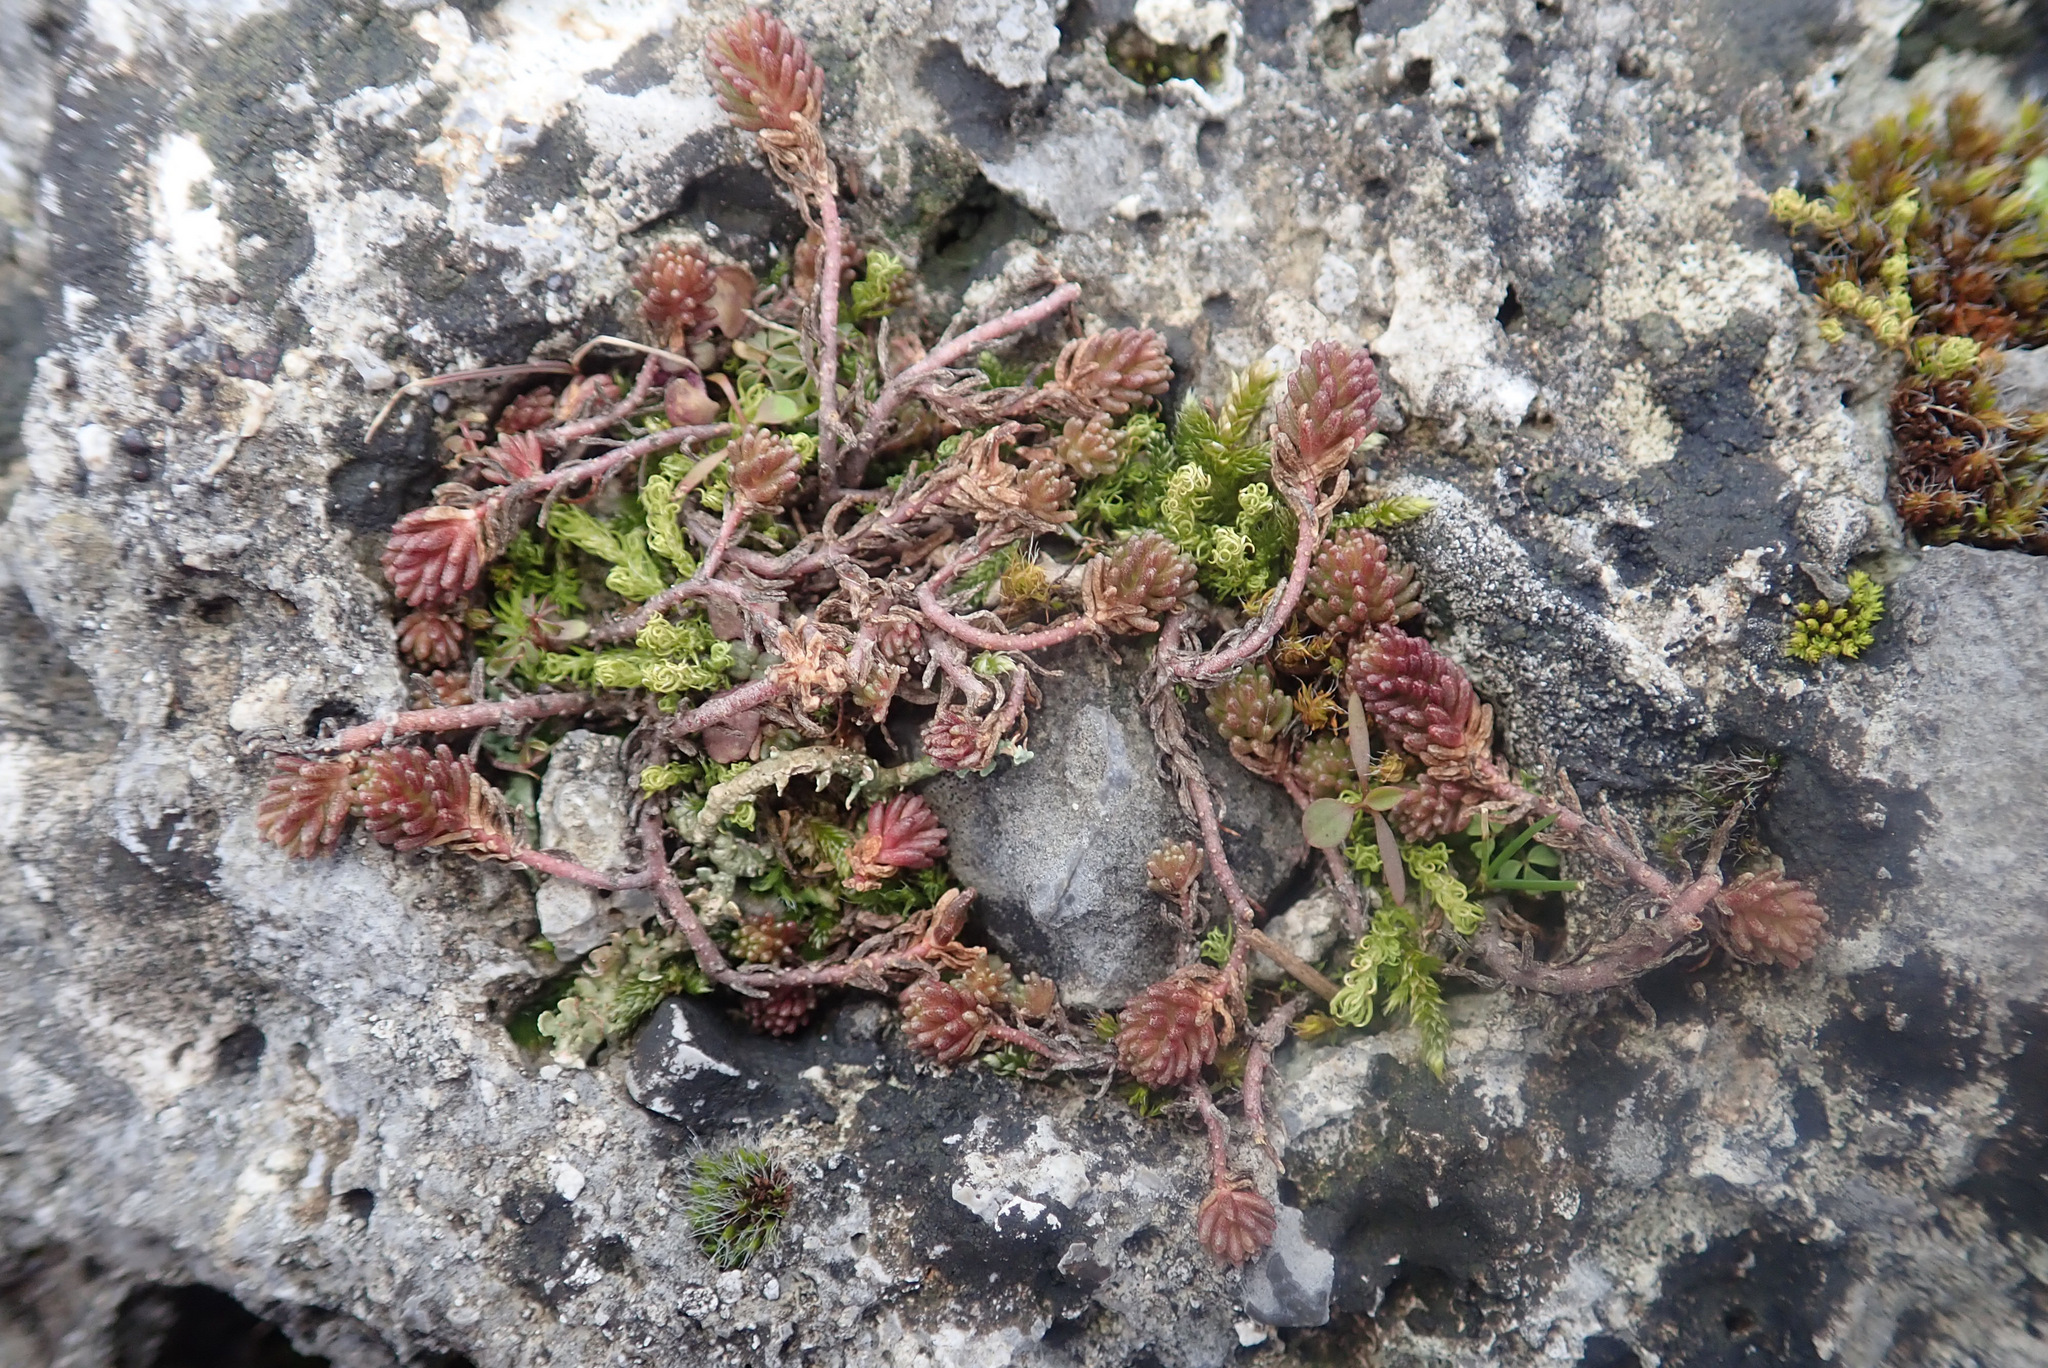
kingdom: Plantae
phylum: Tracheophyta
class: Magnoliopsida
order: Saxifragales
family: Crassulaceae
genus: Sedum
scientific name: Sedum sexangulare
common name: Tasteless stonecrop
